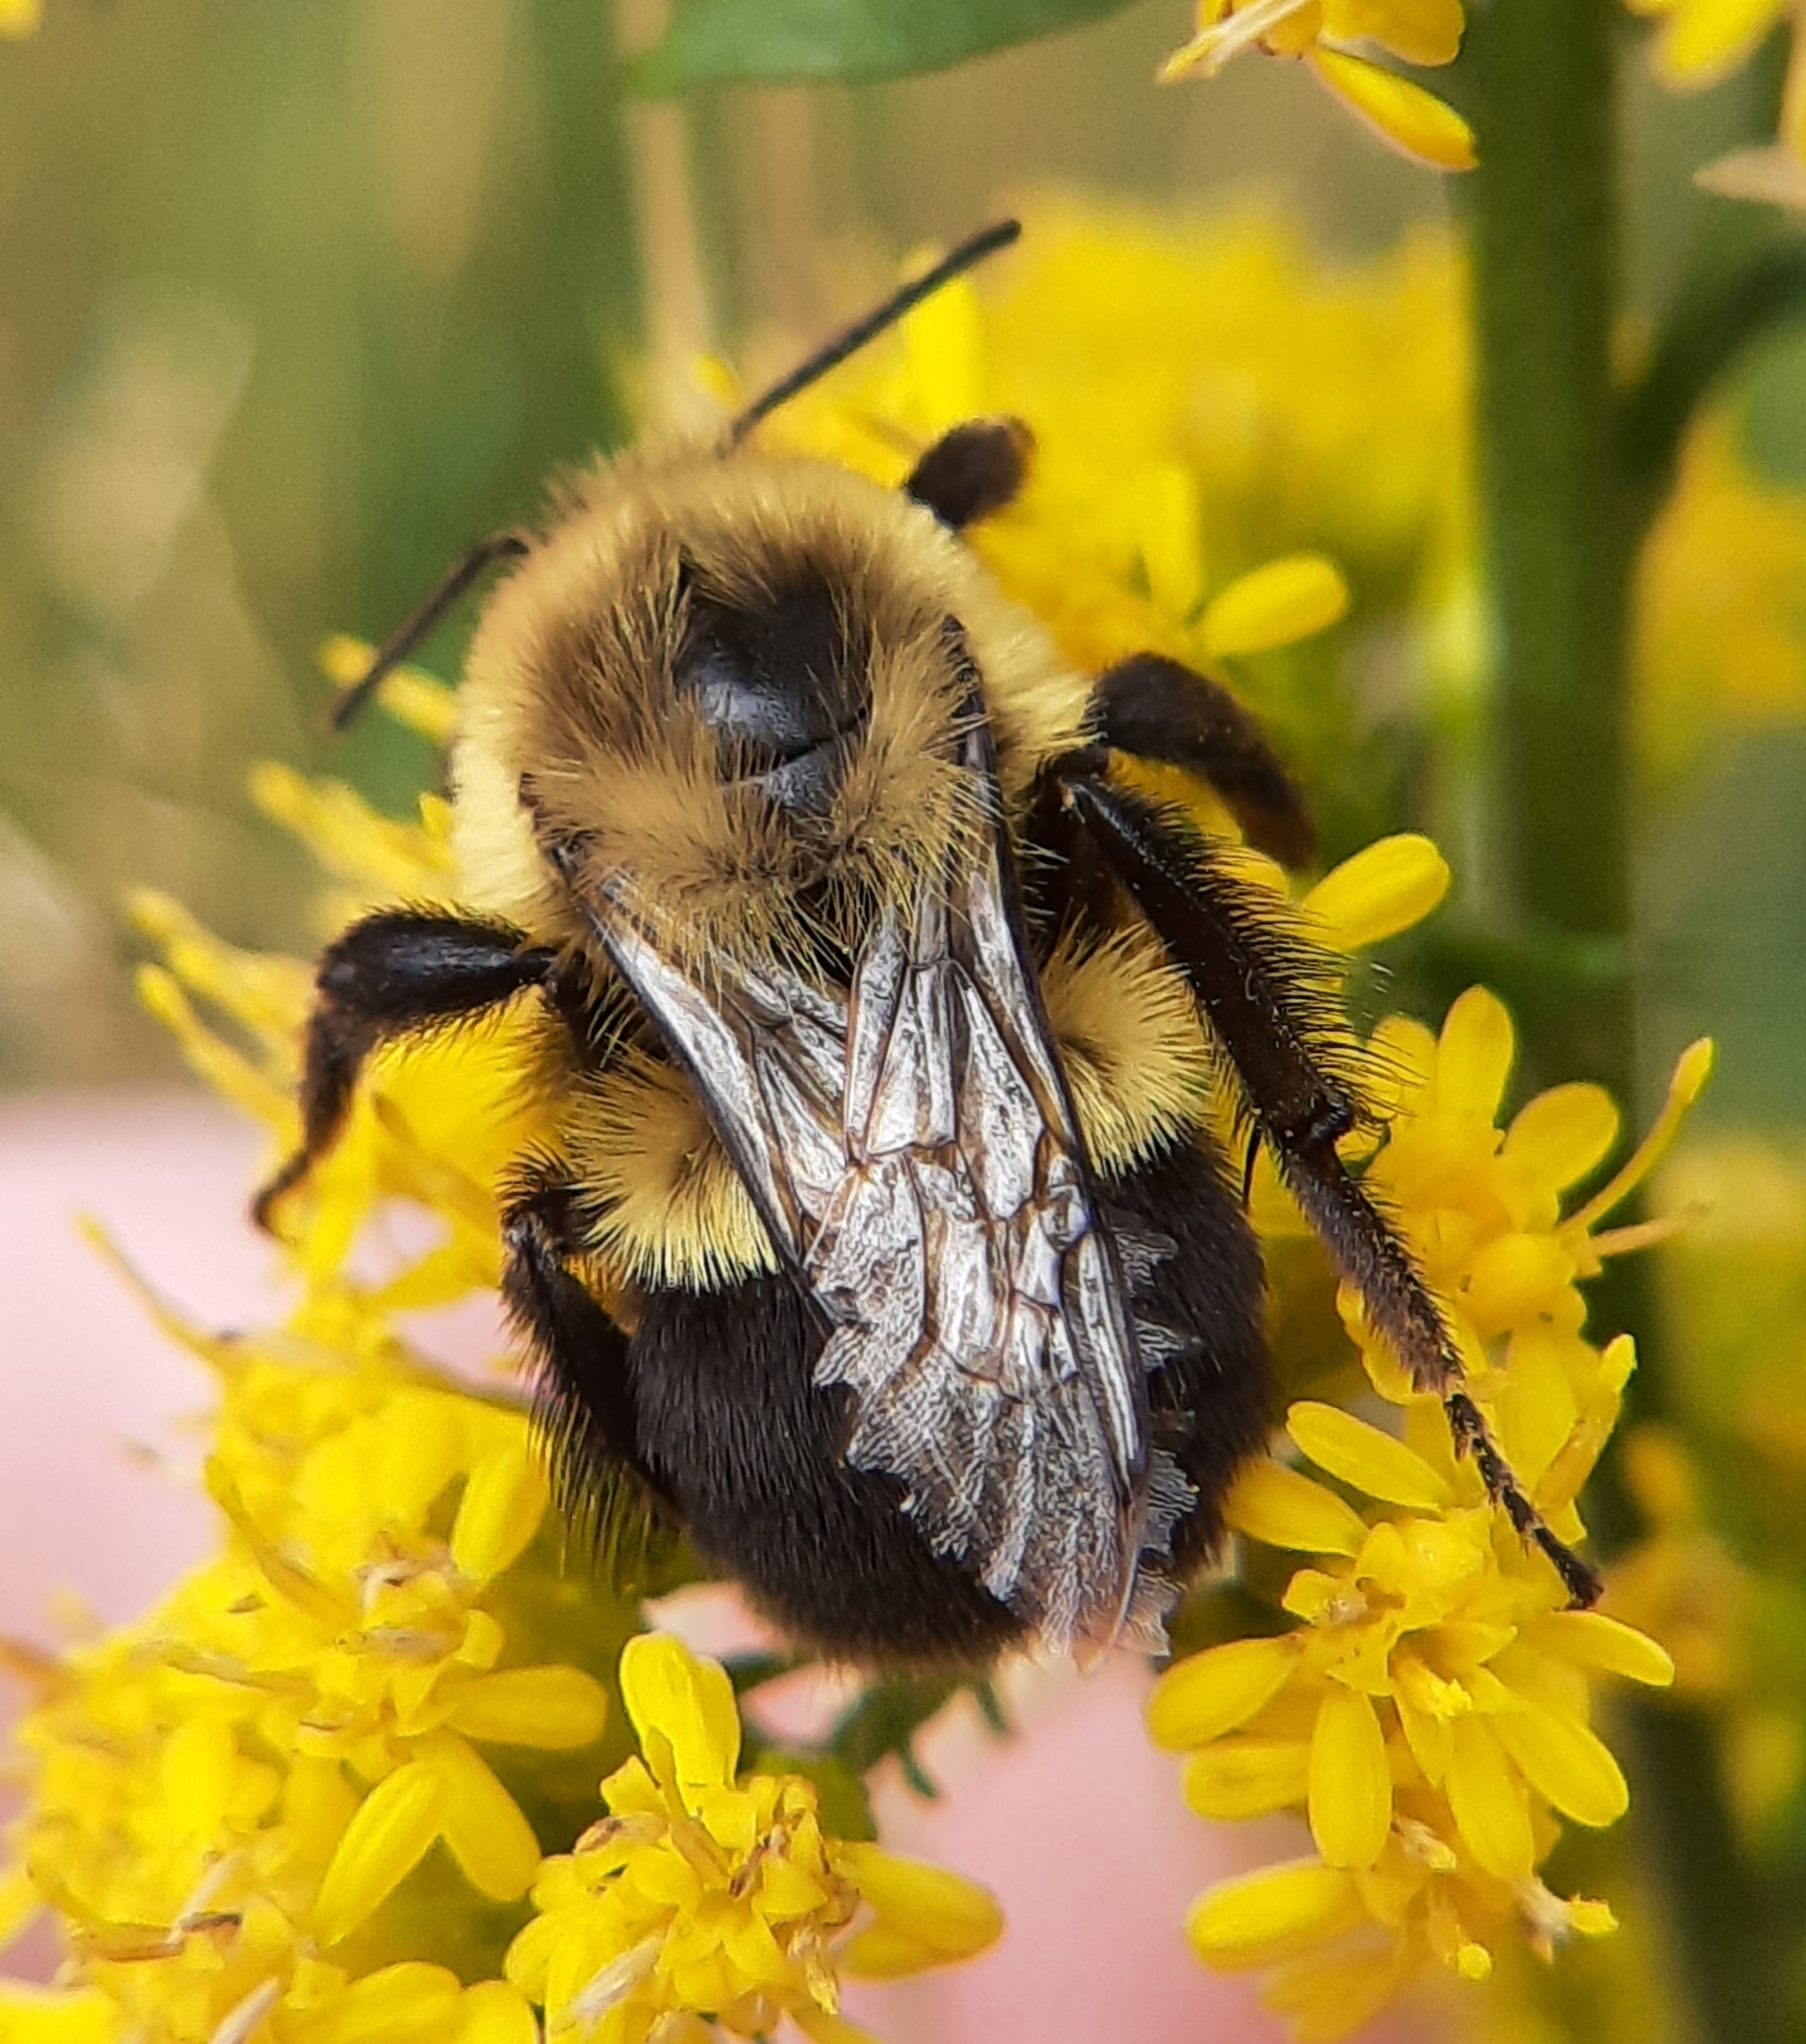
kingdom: Animalia
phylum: Arthropoda
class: Insecta
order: Hymenoptera
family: Apidae
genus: Bombus
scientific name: Bombus impatiens
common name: Common eastern bumble bee
